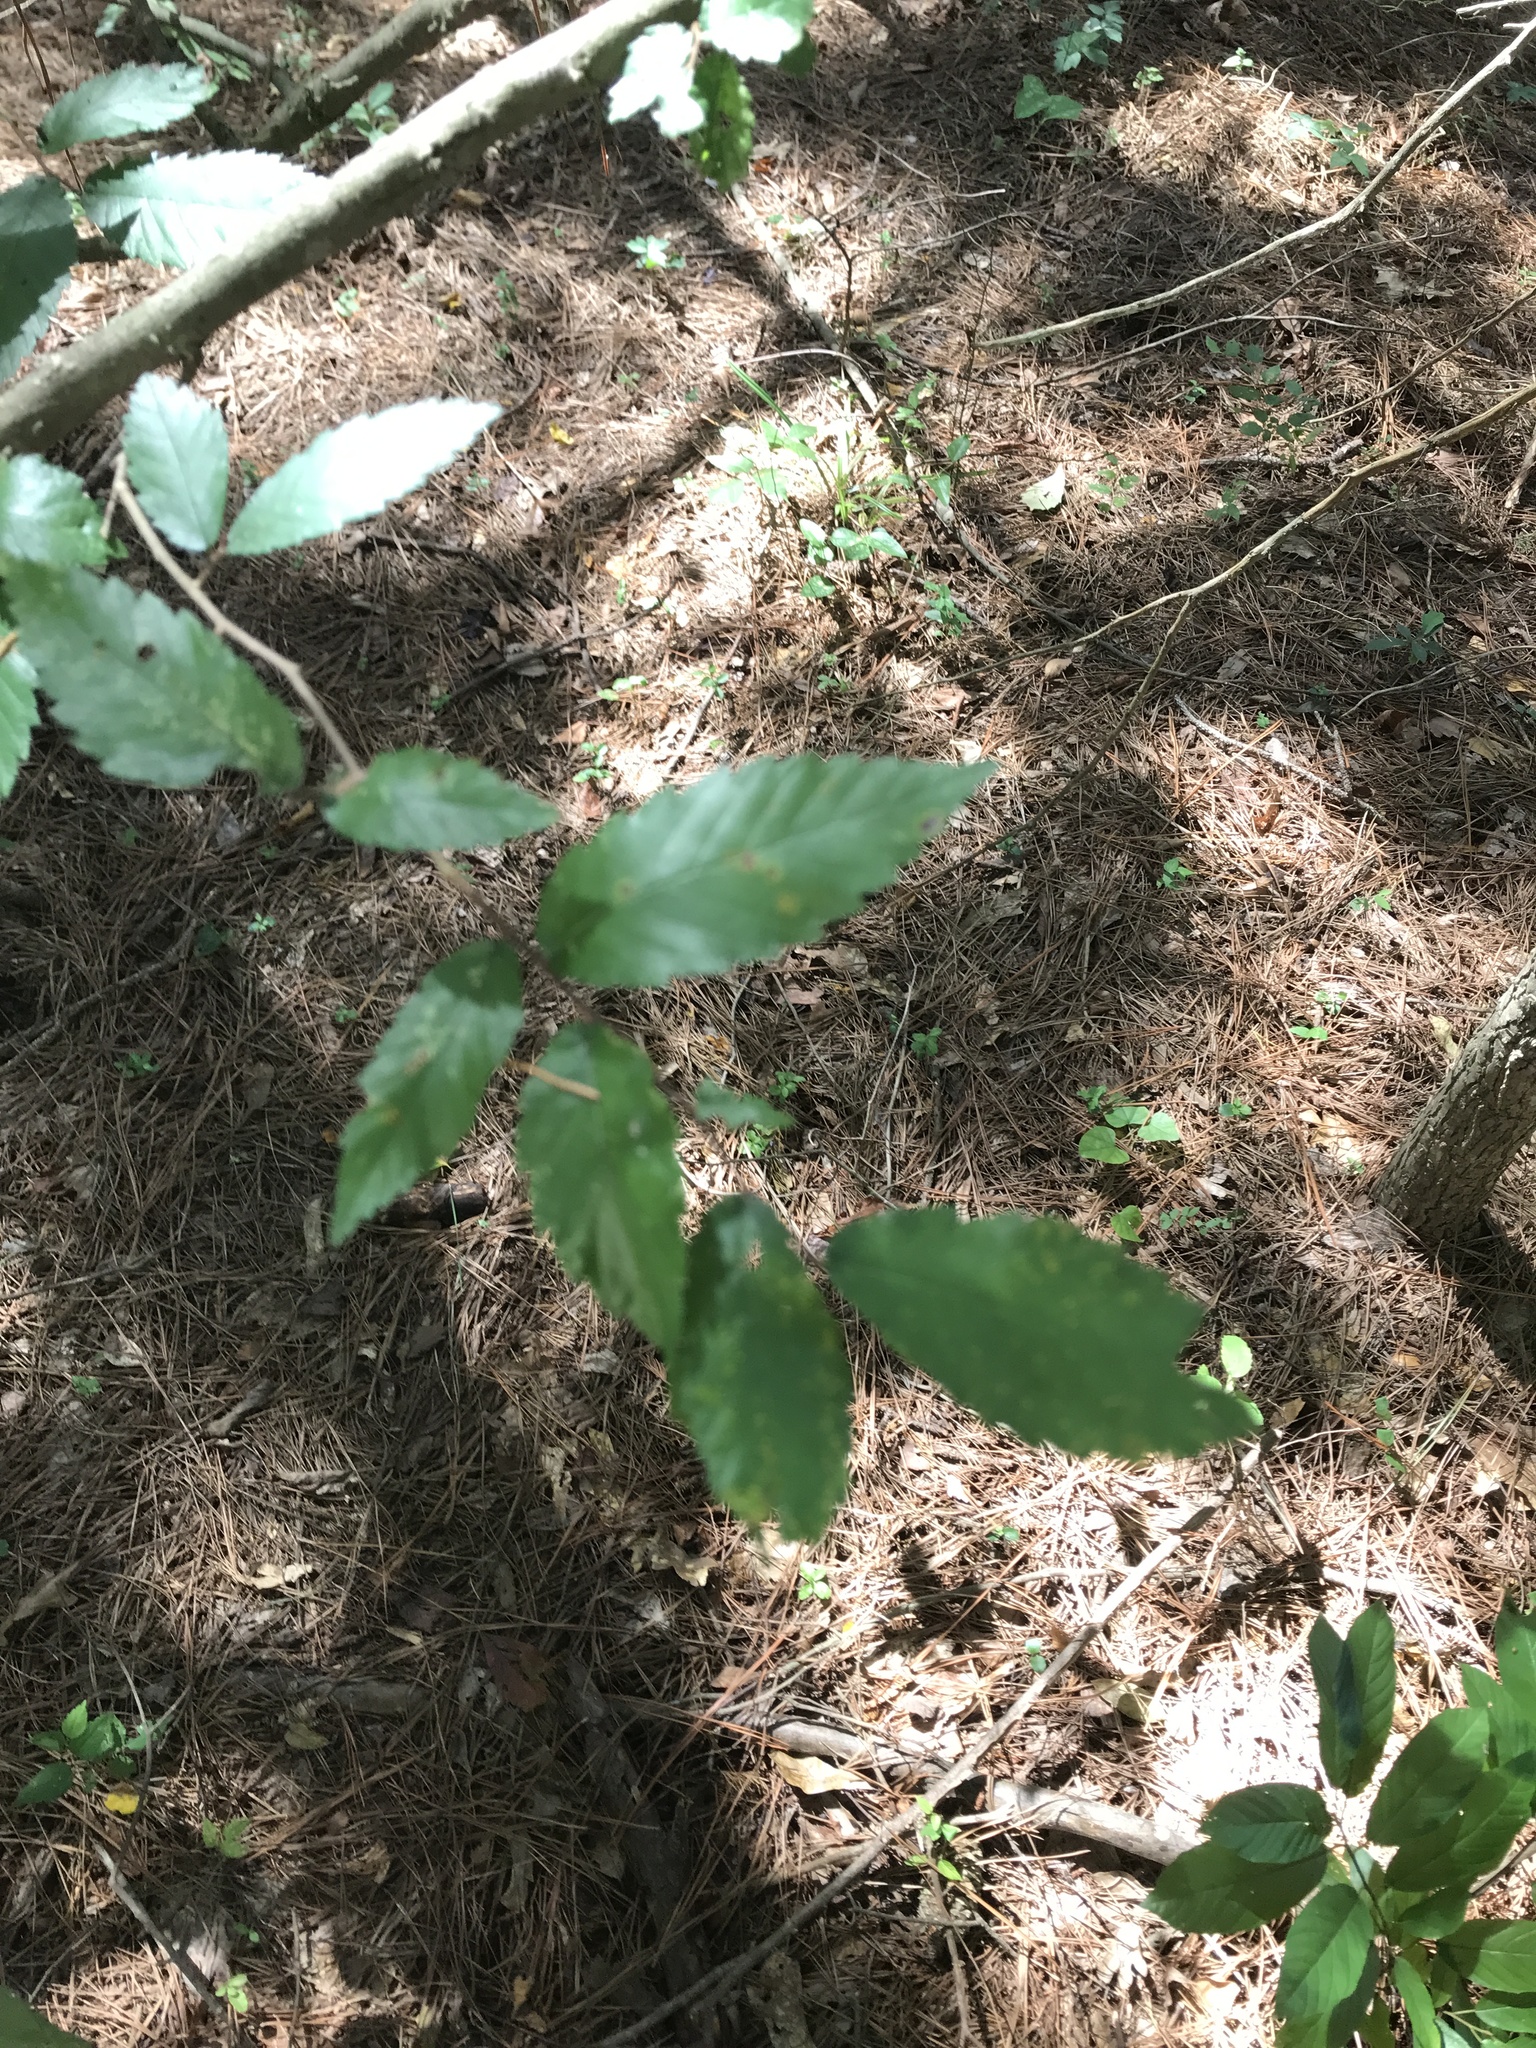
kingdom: Plantae
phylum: Tracheophyta
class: Magnoliopsida
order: Rosales
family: Ulmaceae
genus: Ulmus
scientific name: Ulmus alata
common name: Winged elm
